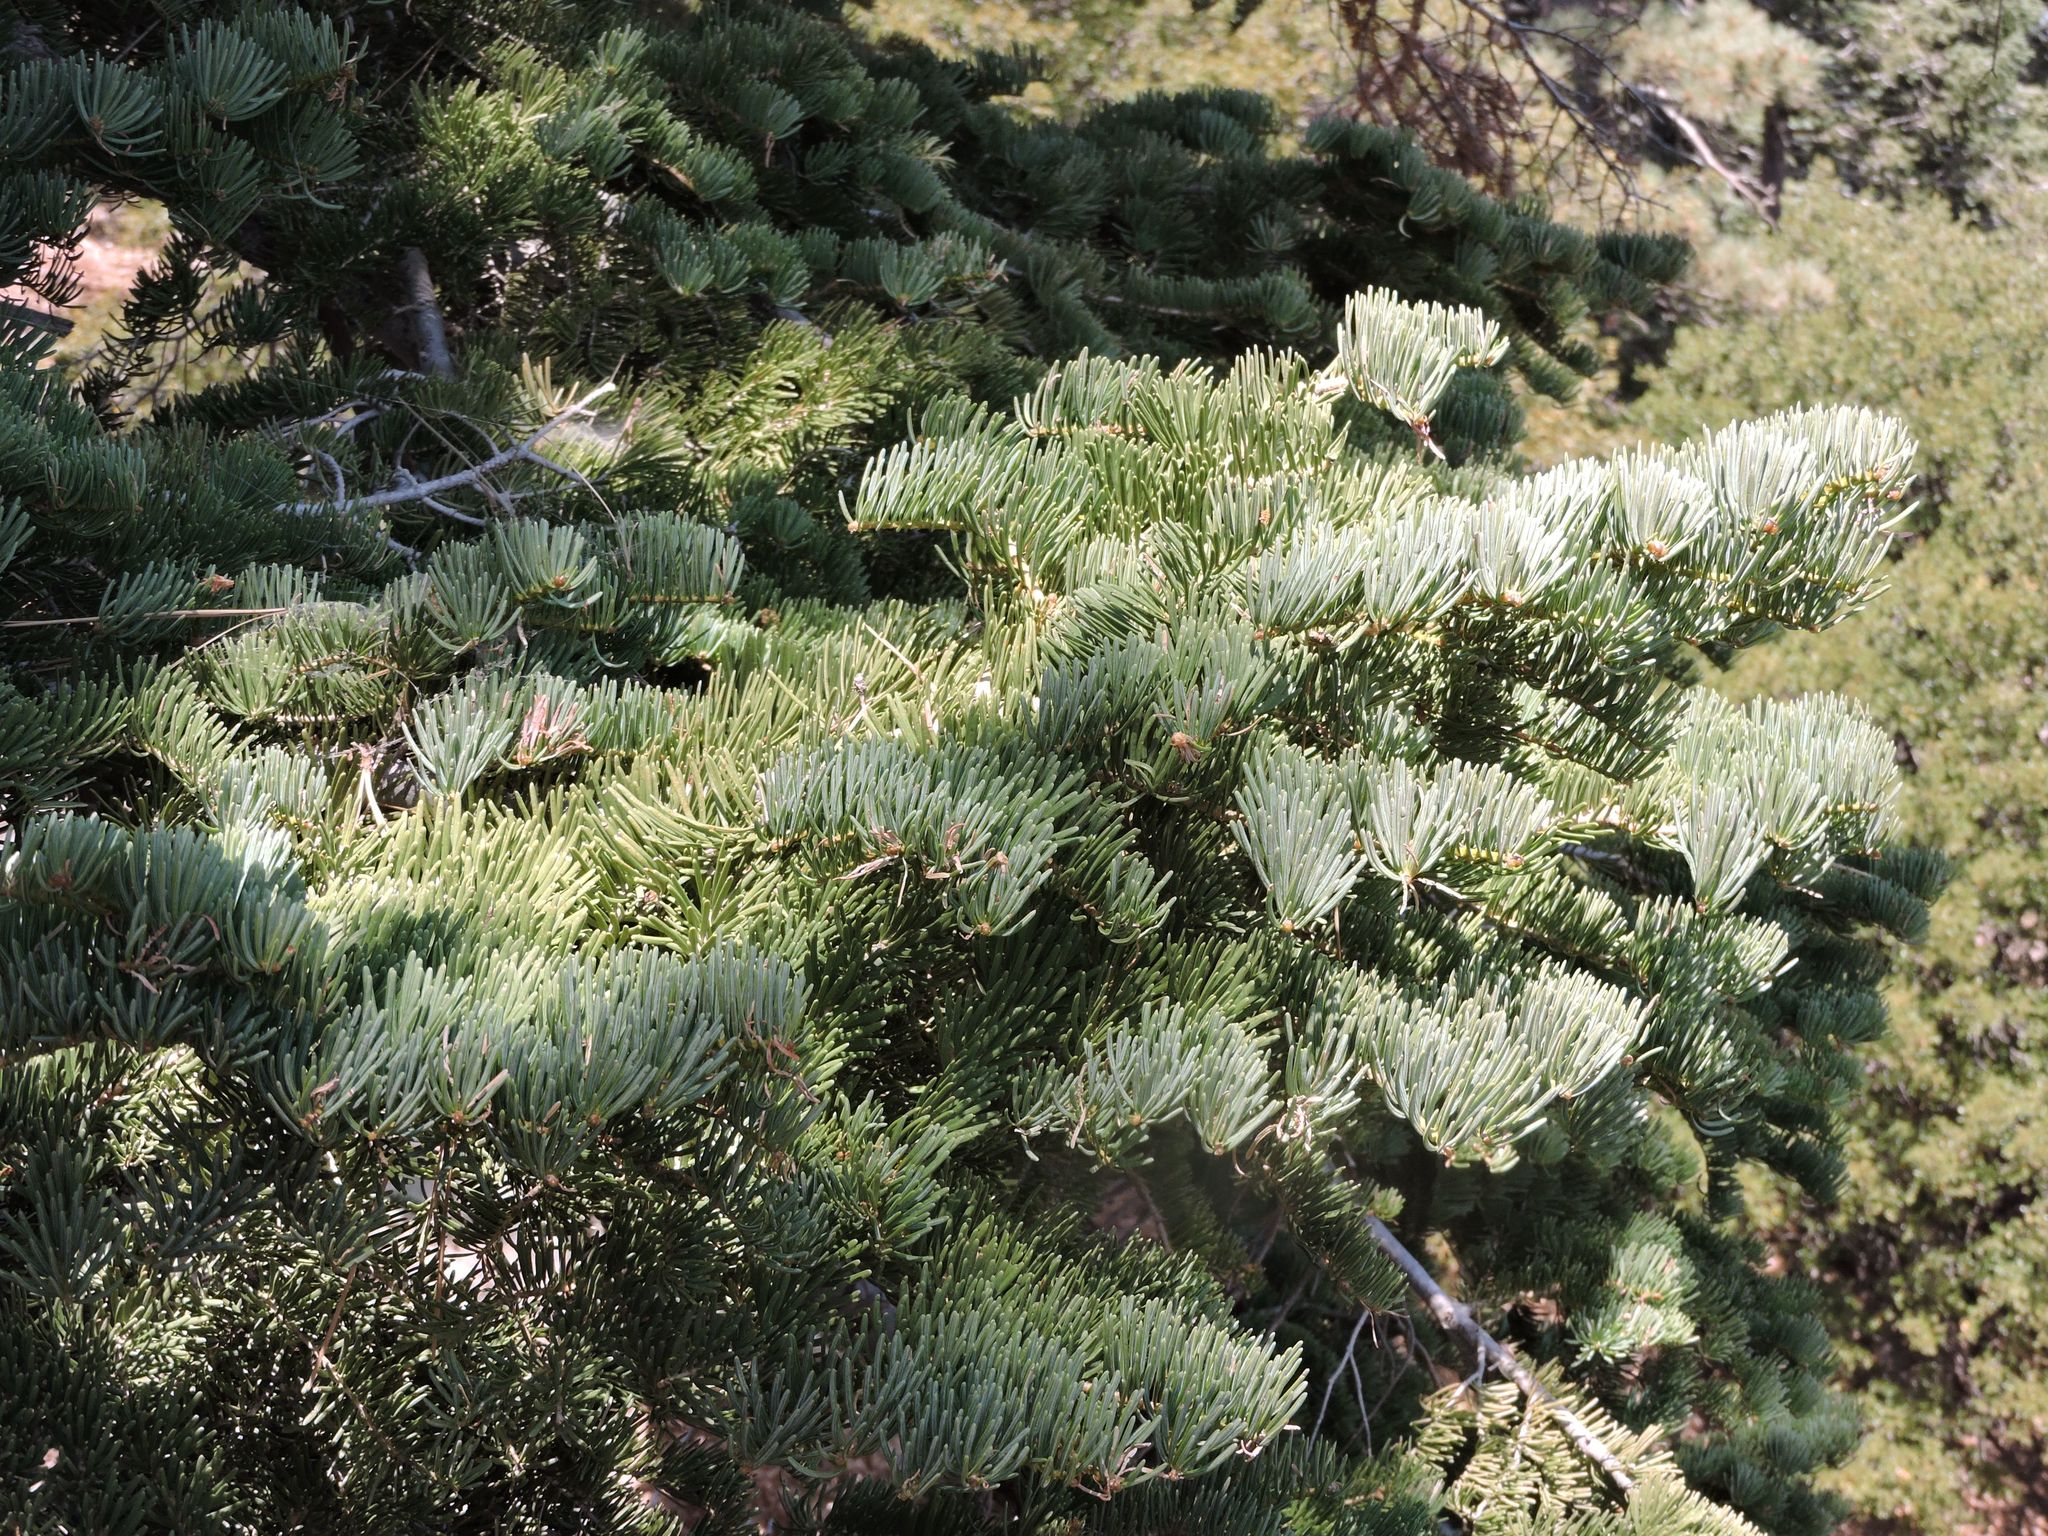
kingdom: Plantae
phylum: Tracheophyta
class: Pinopsida
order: Pinales
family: Pinaceae
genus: Abies
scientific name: Abies concolor
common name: Colorado fir
